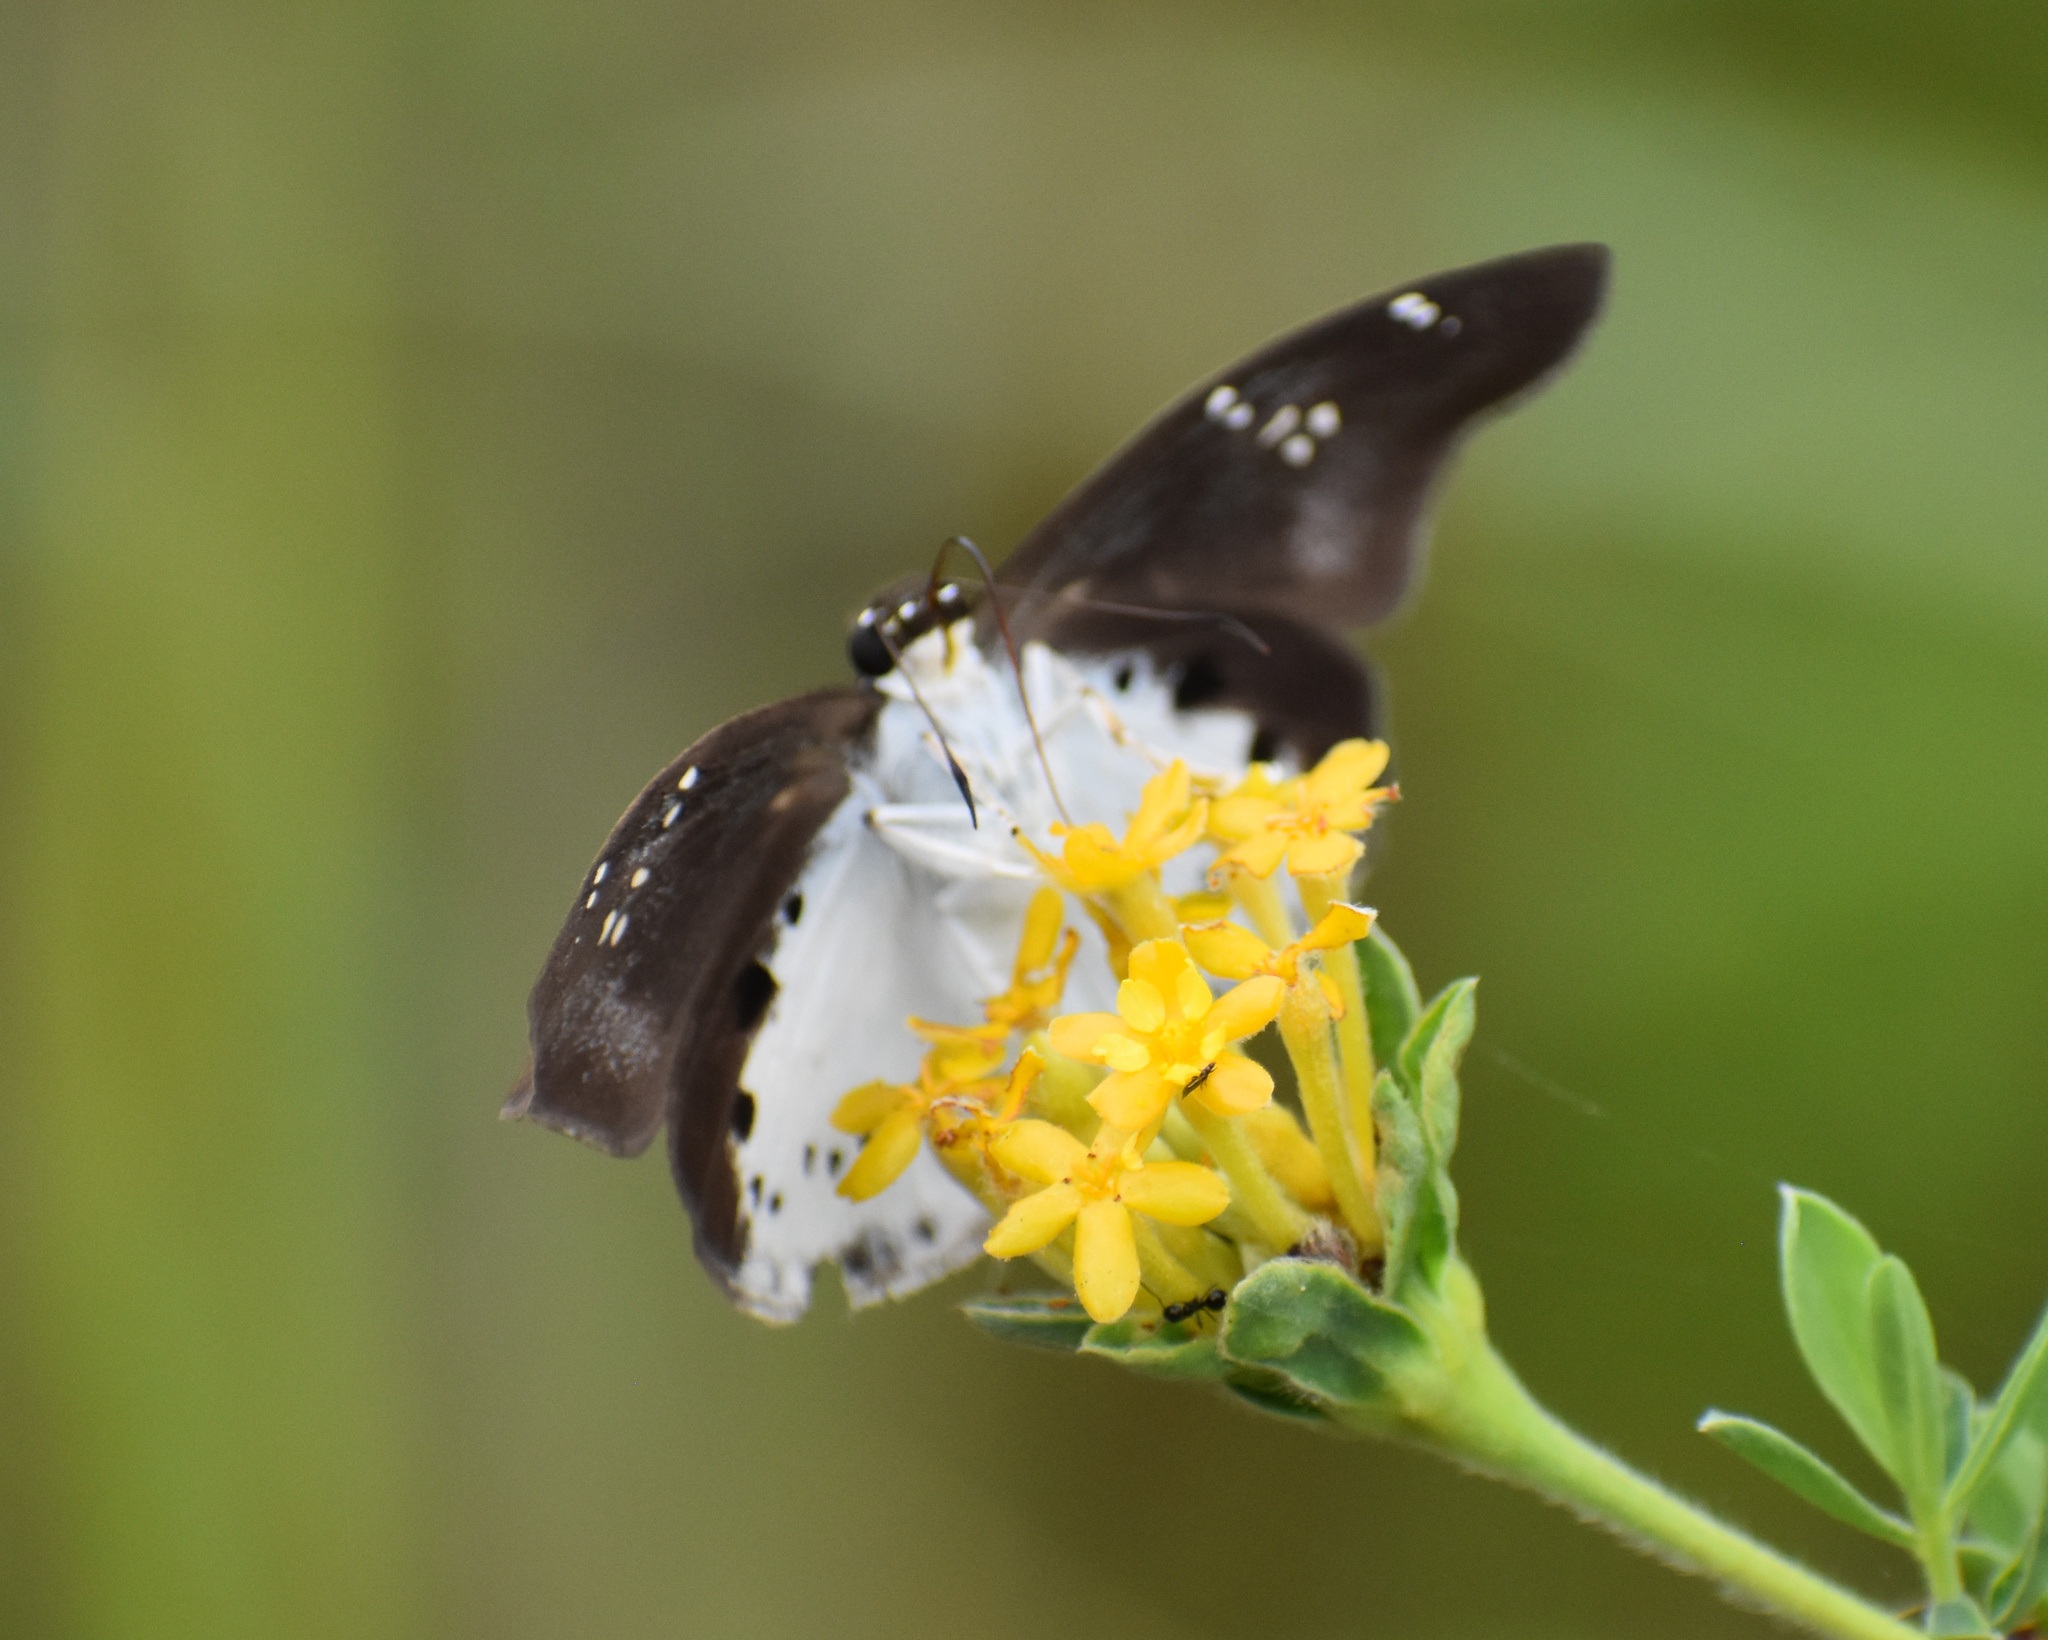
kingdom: Animalia
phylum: Arthropoda
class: Insecta
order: Lepidoptera
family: Hesperiidae
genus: Tagiades
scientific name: Tagiades flesus
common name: Clouded flat
